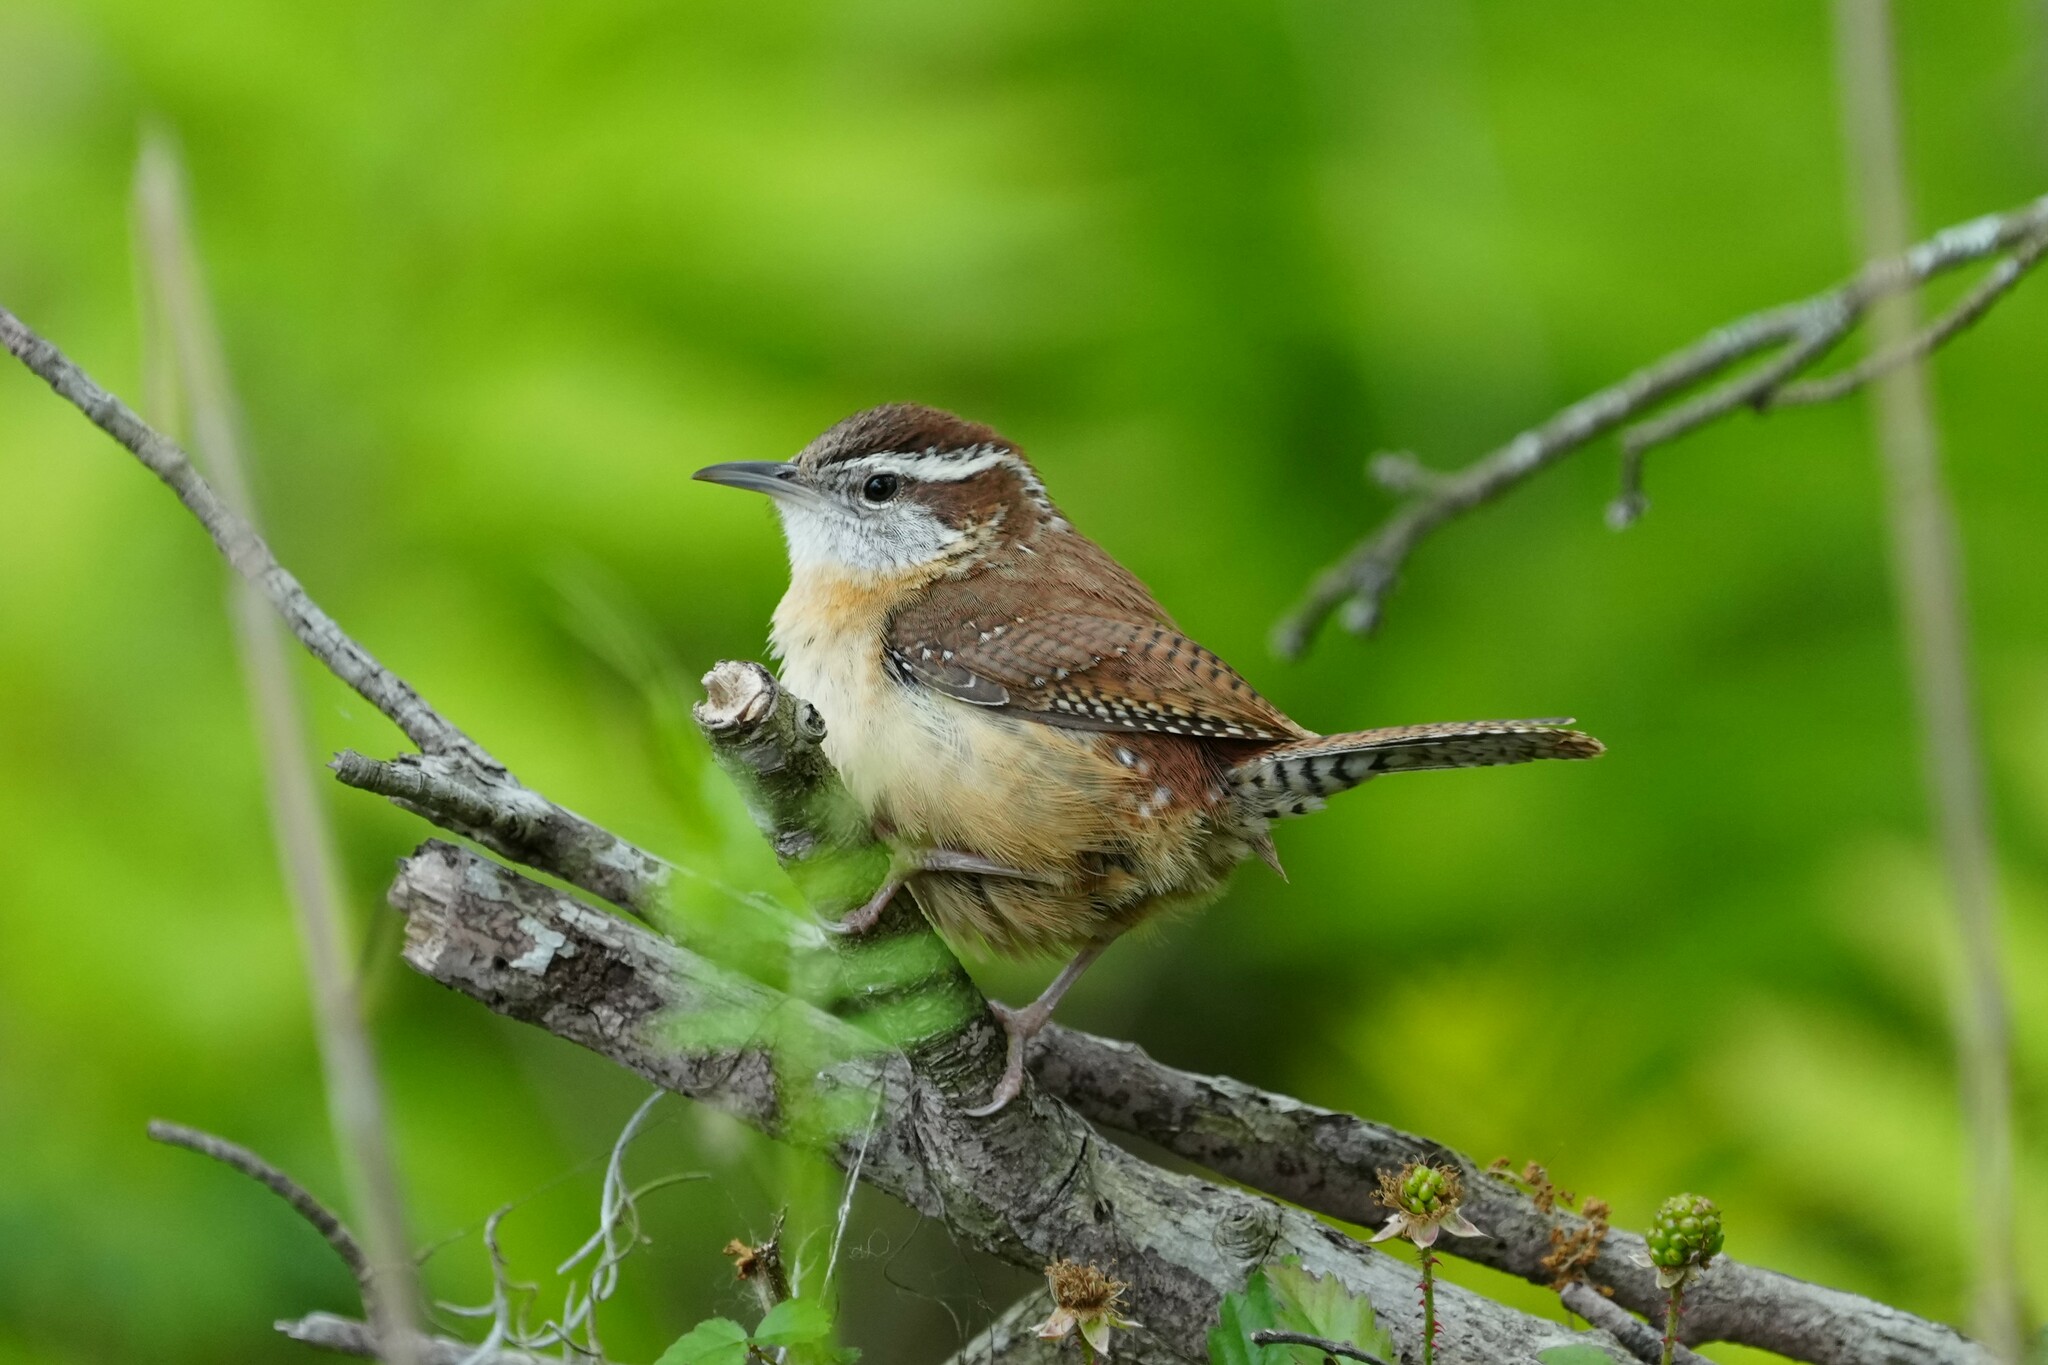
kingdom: Animalia
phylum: Chordata
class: Aves
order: Passeriformes
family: Troglodytidae
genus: Thryothorus
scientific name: Thryothorus ludovicianus
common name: Carolina wren
